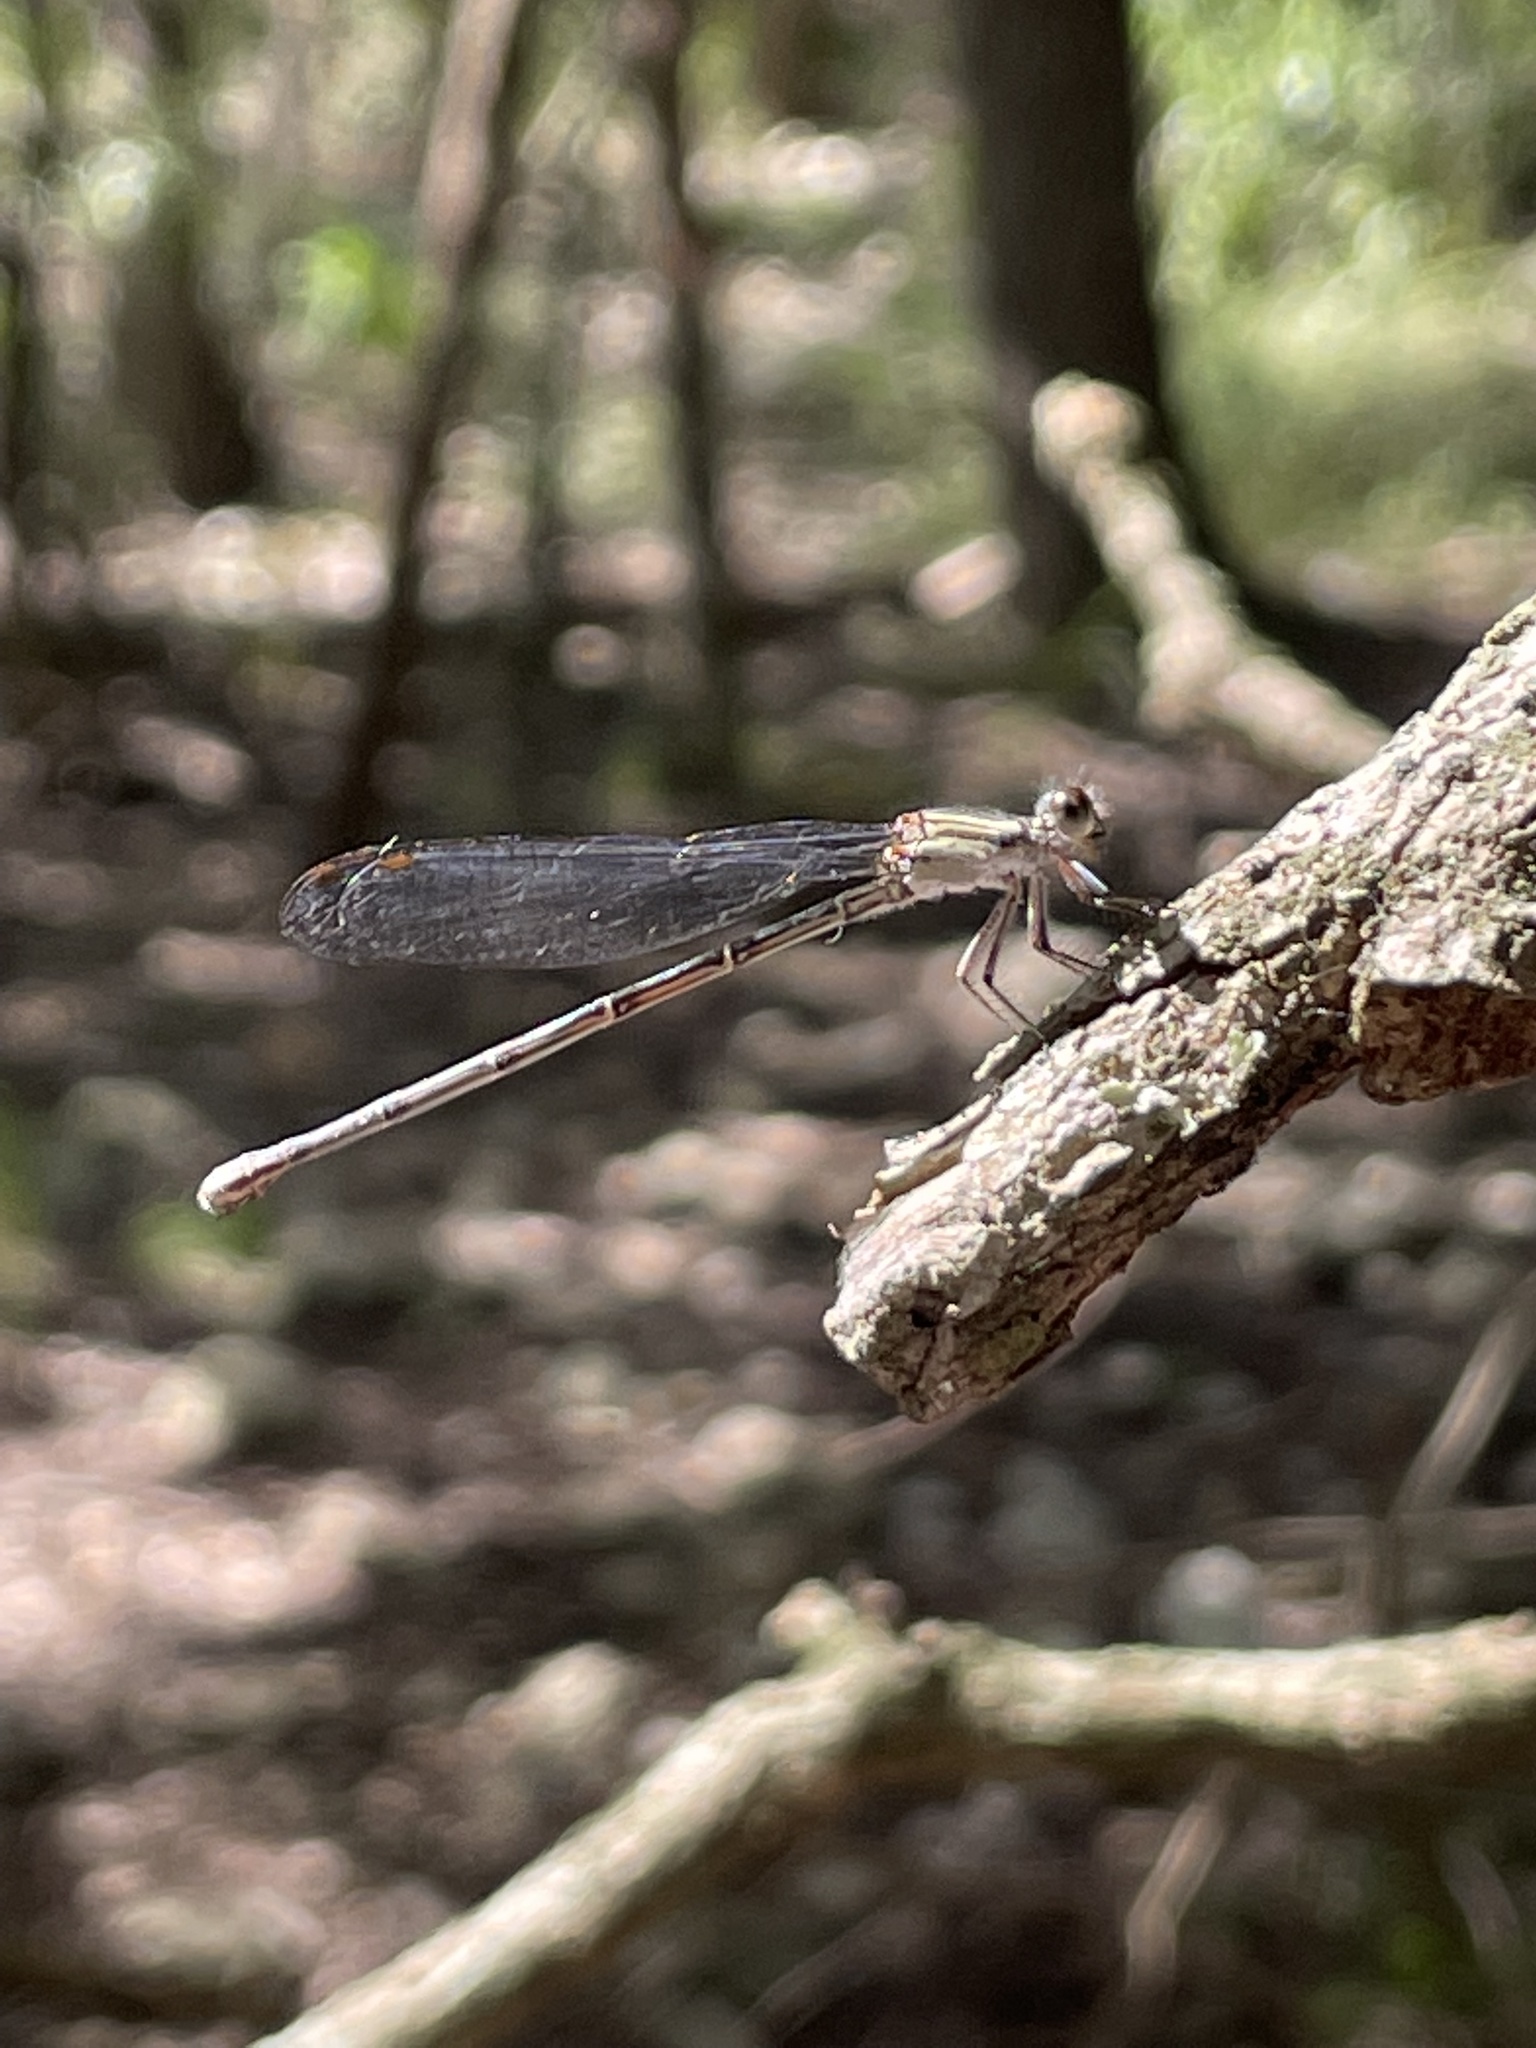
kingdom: Animalia
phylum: Arthropoda
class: Insecta
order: Odonata
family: Coenagrionidae
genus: Argia
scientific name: Argia translata
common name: Dusky dancer
